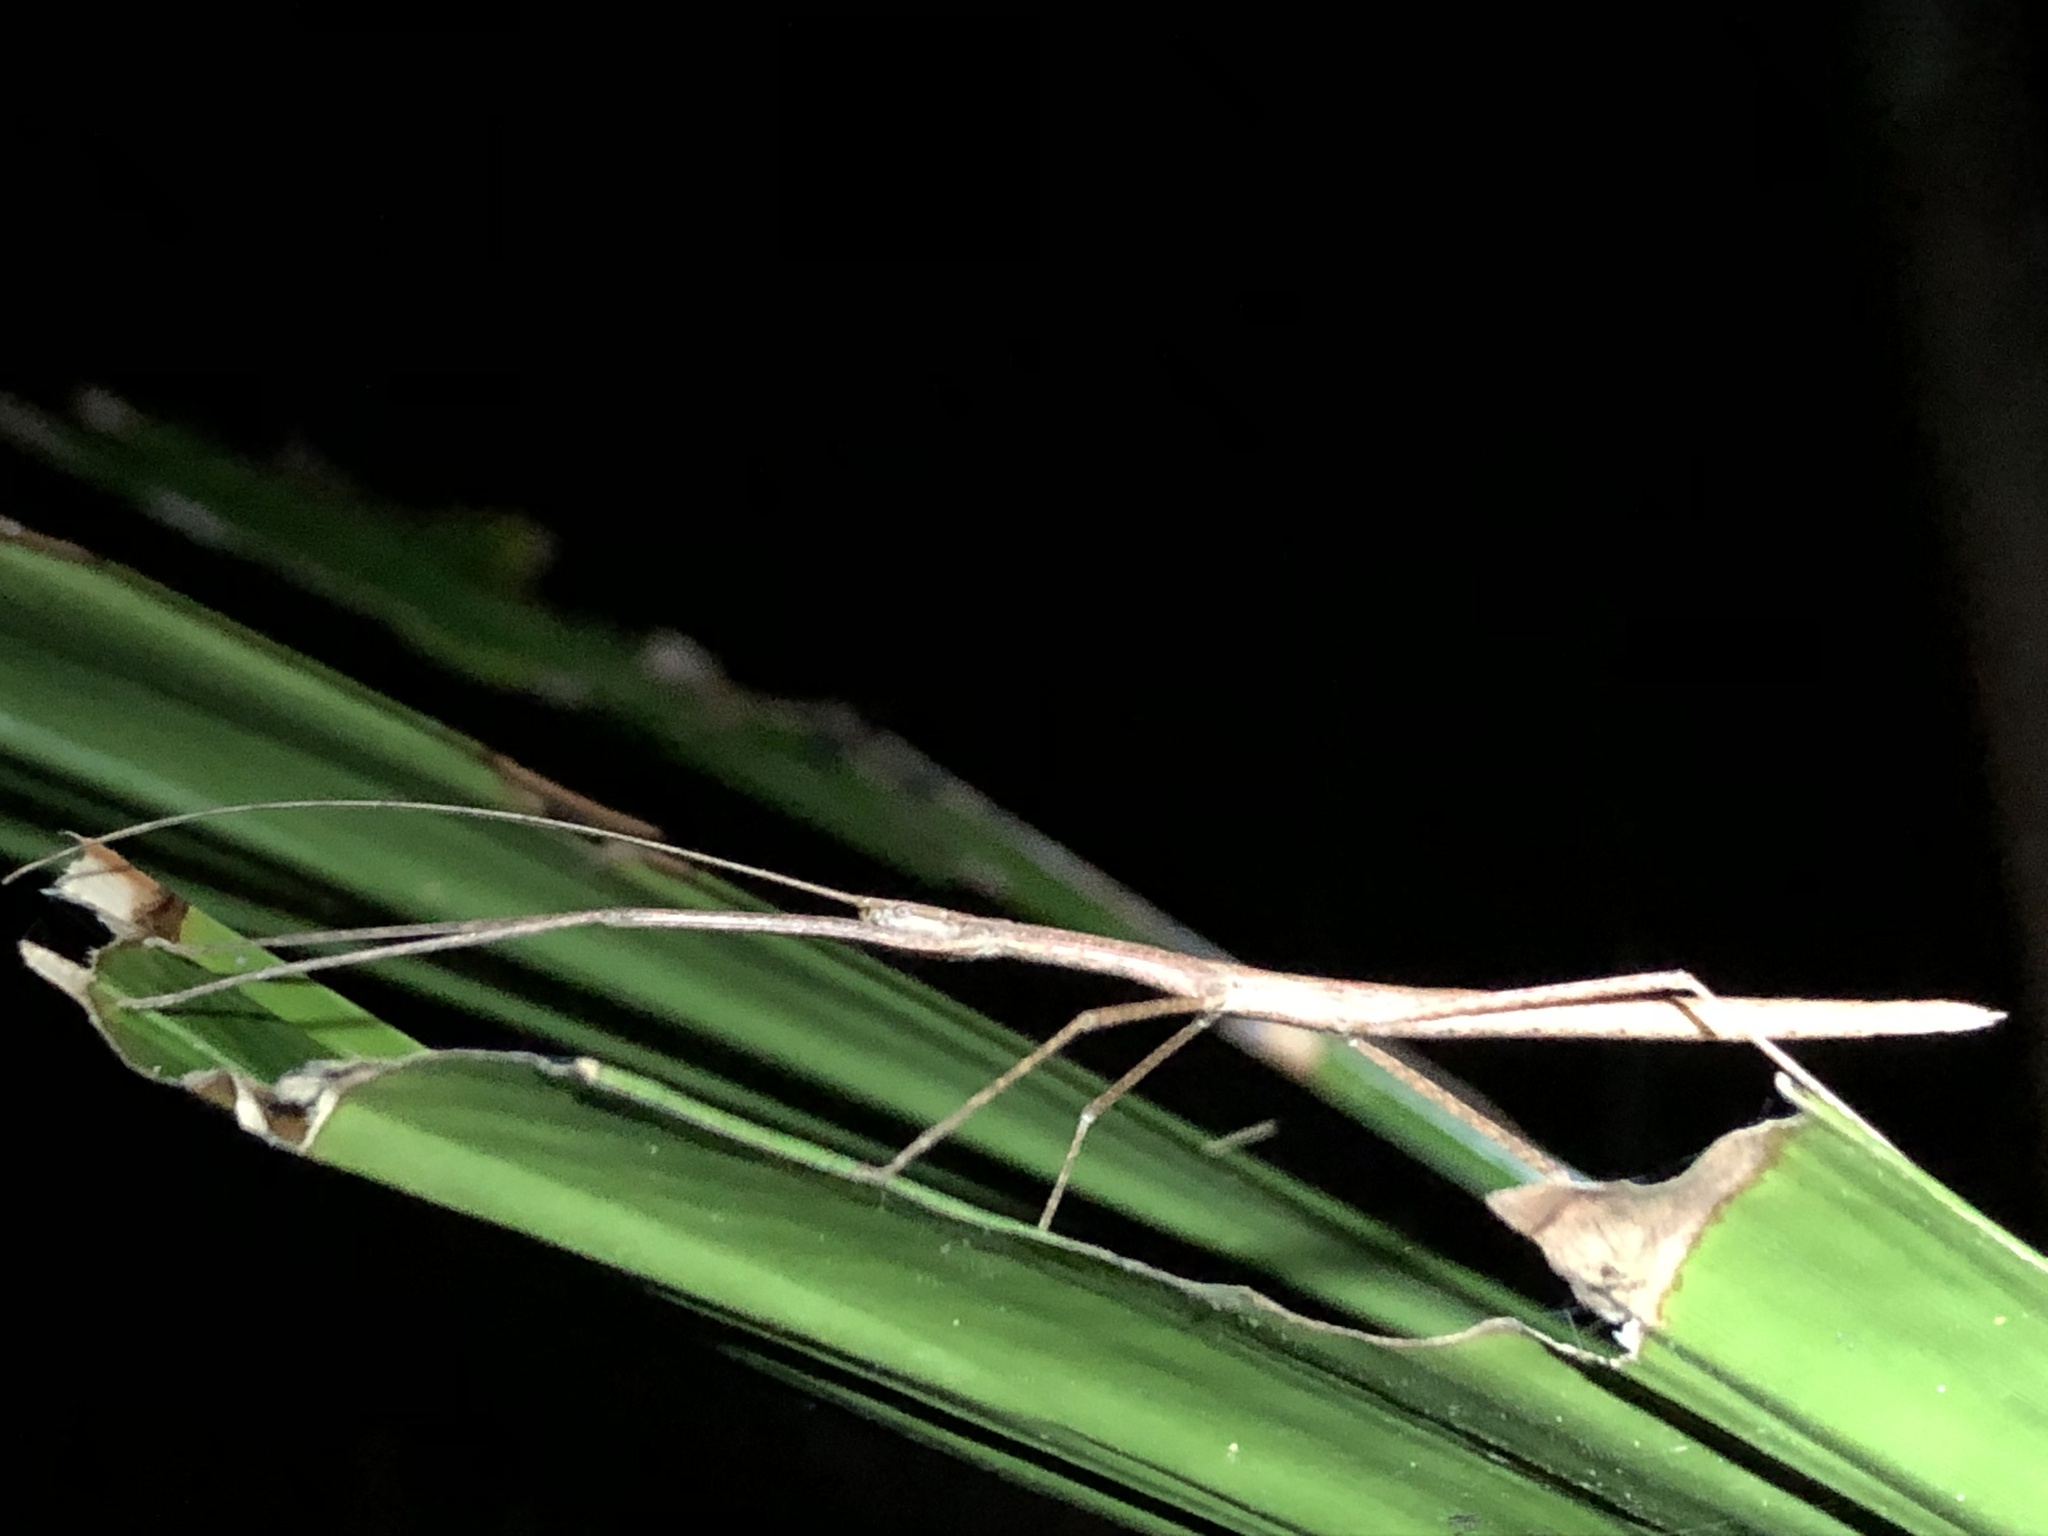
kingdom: Animalia
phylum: Arthropoda
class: Insecta
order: Phasmida
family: Lonchodidae
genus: Sipyloidea
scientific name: Sipyloidea larryi
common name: Hurricane larry stick-insect
